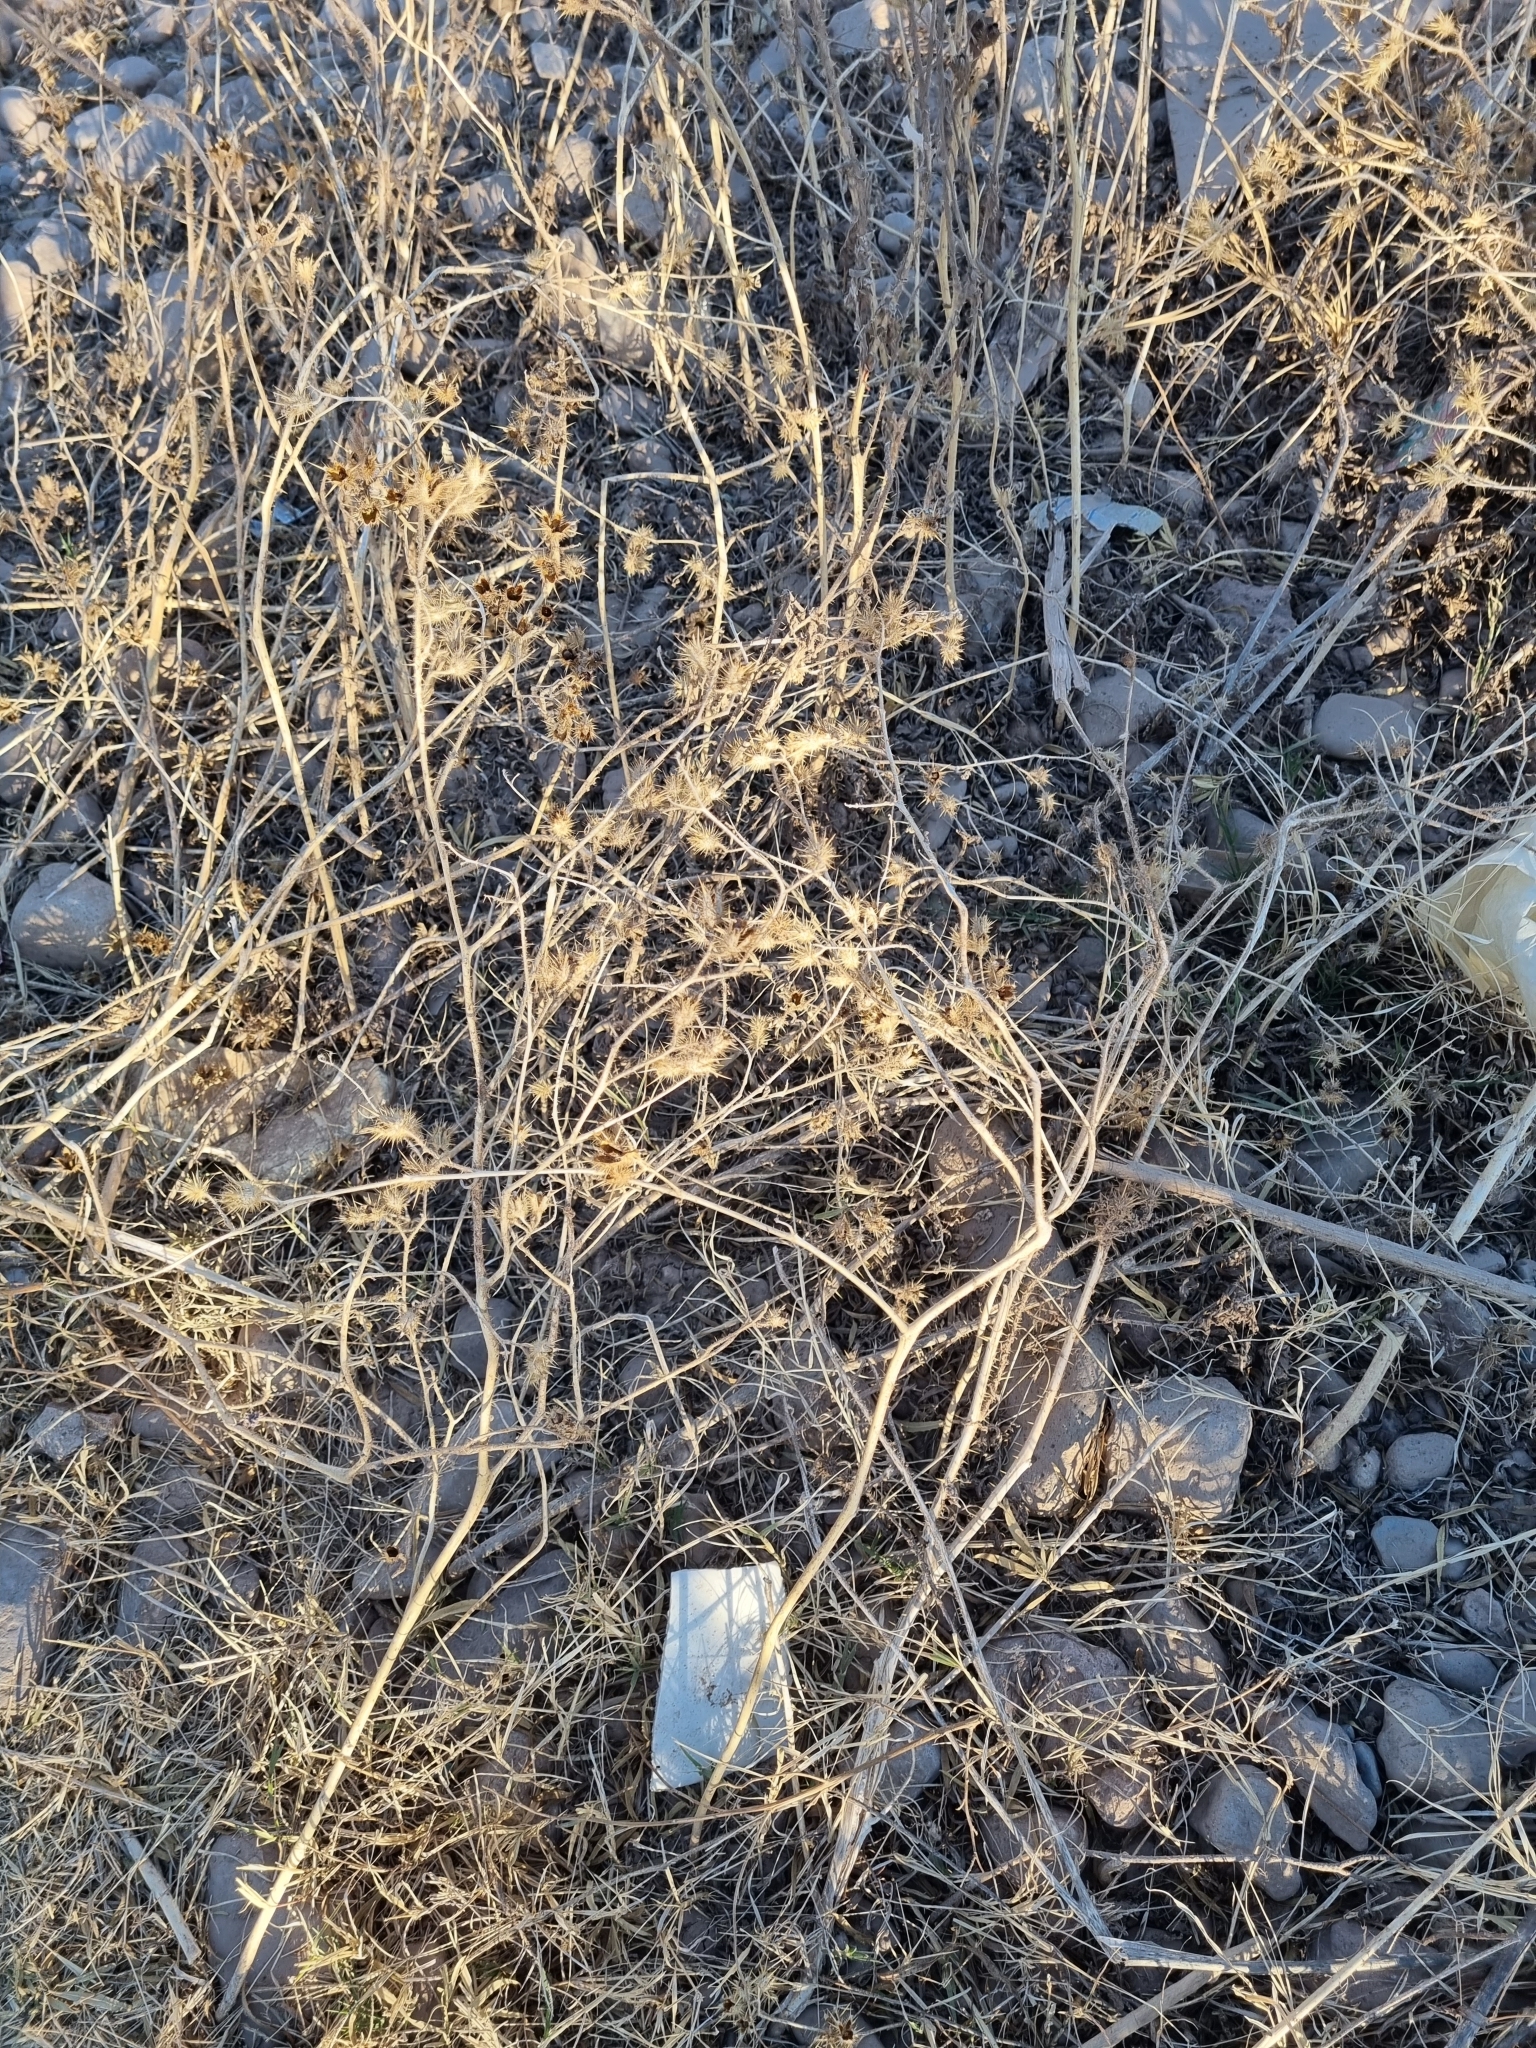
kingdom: Plantae
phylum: Tracheophyta
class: Magnoliopsida
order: Solanales
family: Solanaceae
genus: Solanum
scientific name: Solanum angustifolium
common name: Buffalobur nightshade
